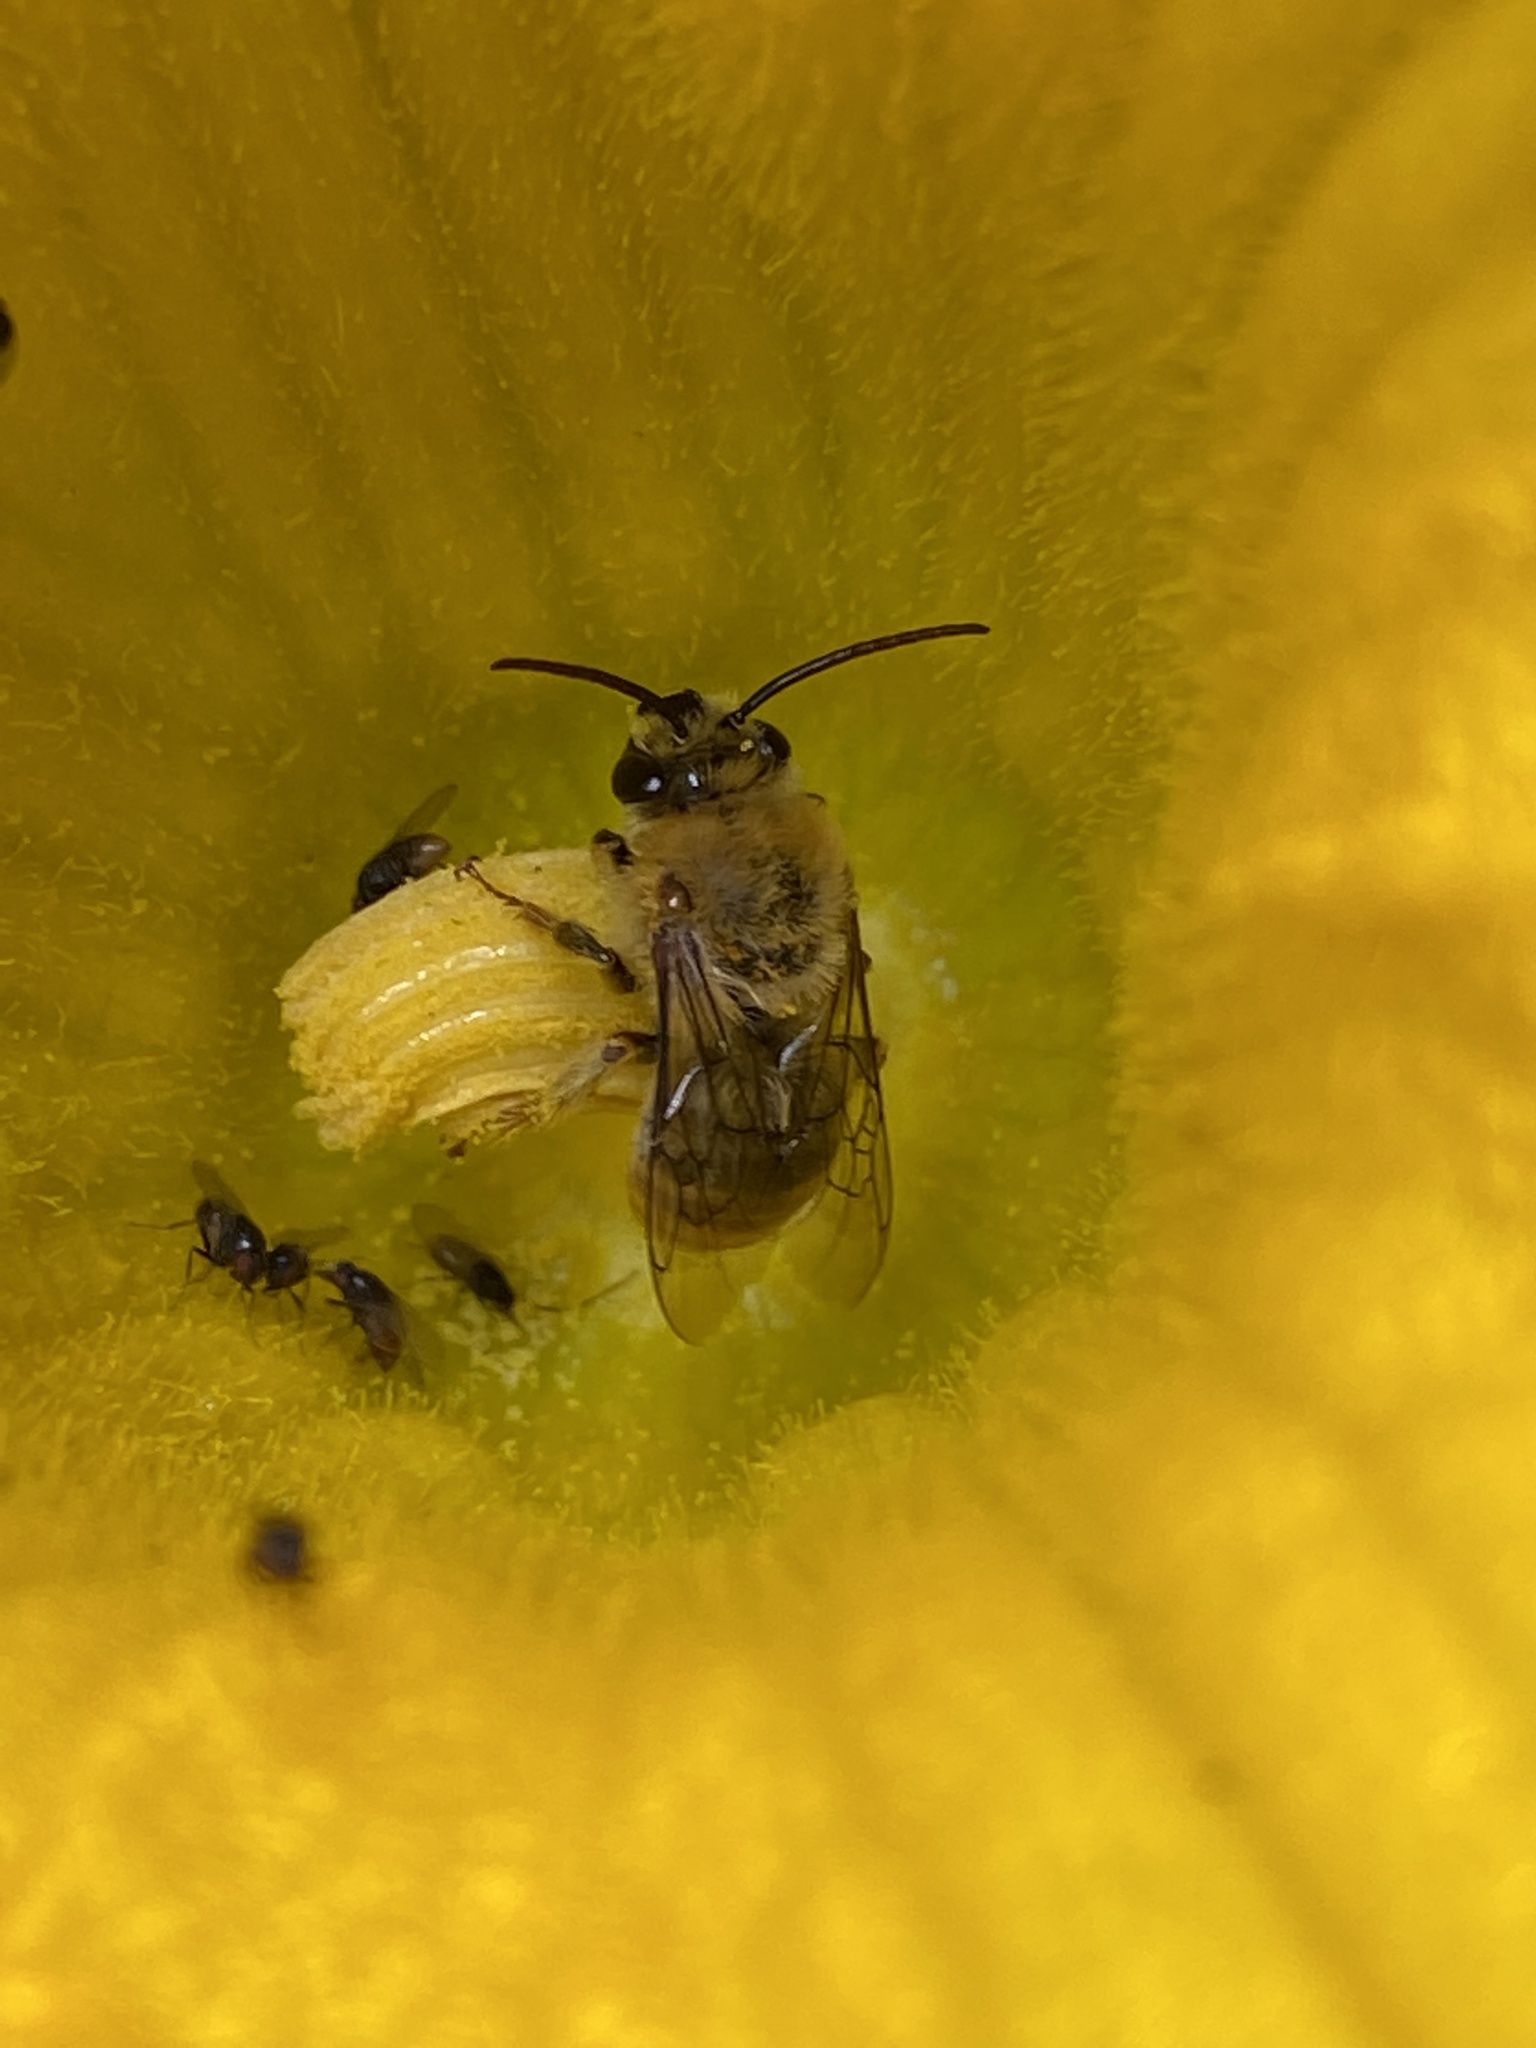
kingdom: Animalia
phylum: Arthropoda
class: Insecta
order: Hymenoptera
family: Apidae
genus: Peponapis
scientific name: Peponapis pruinosa
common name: Pruinose squash bee
